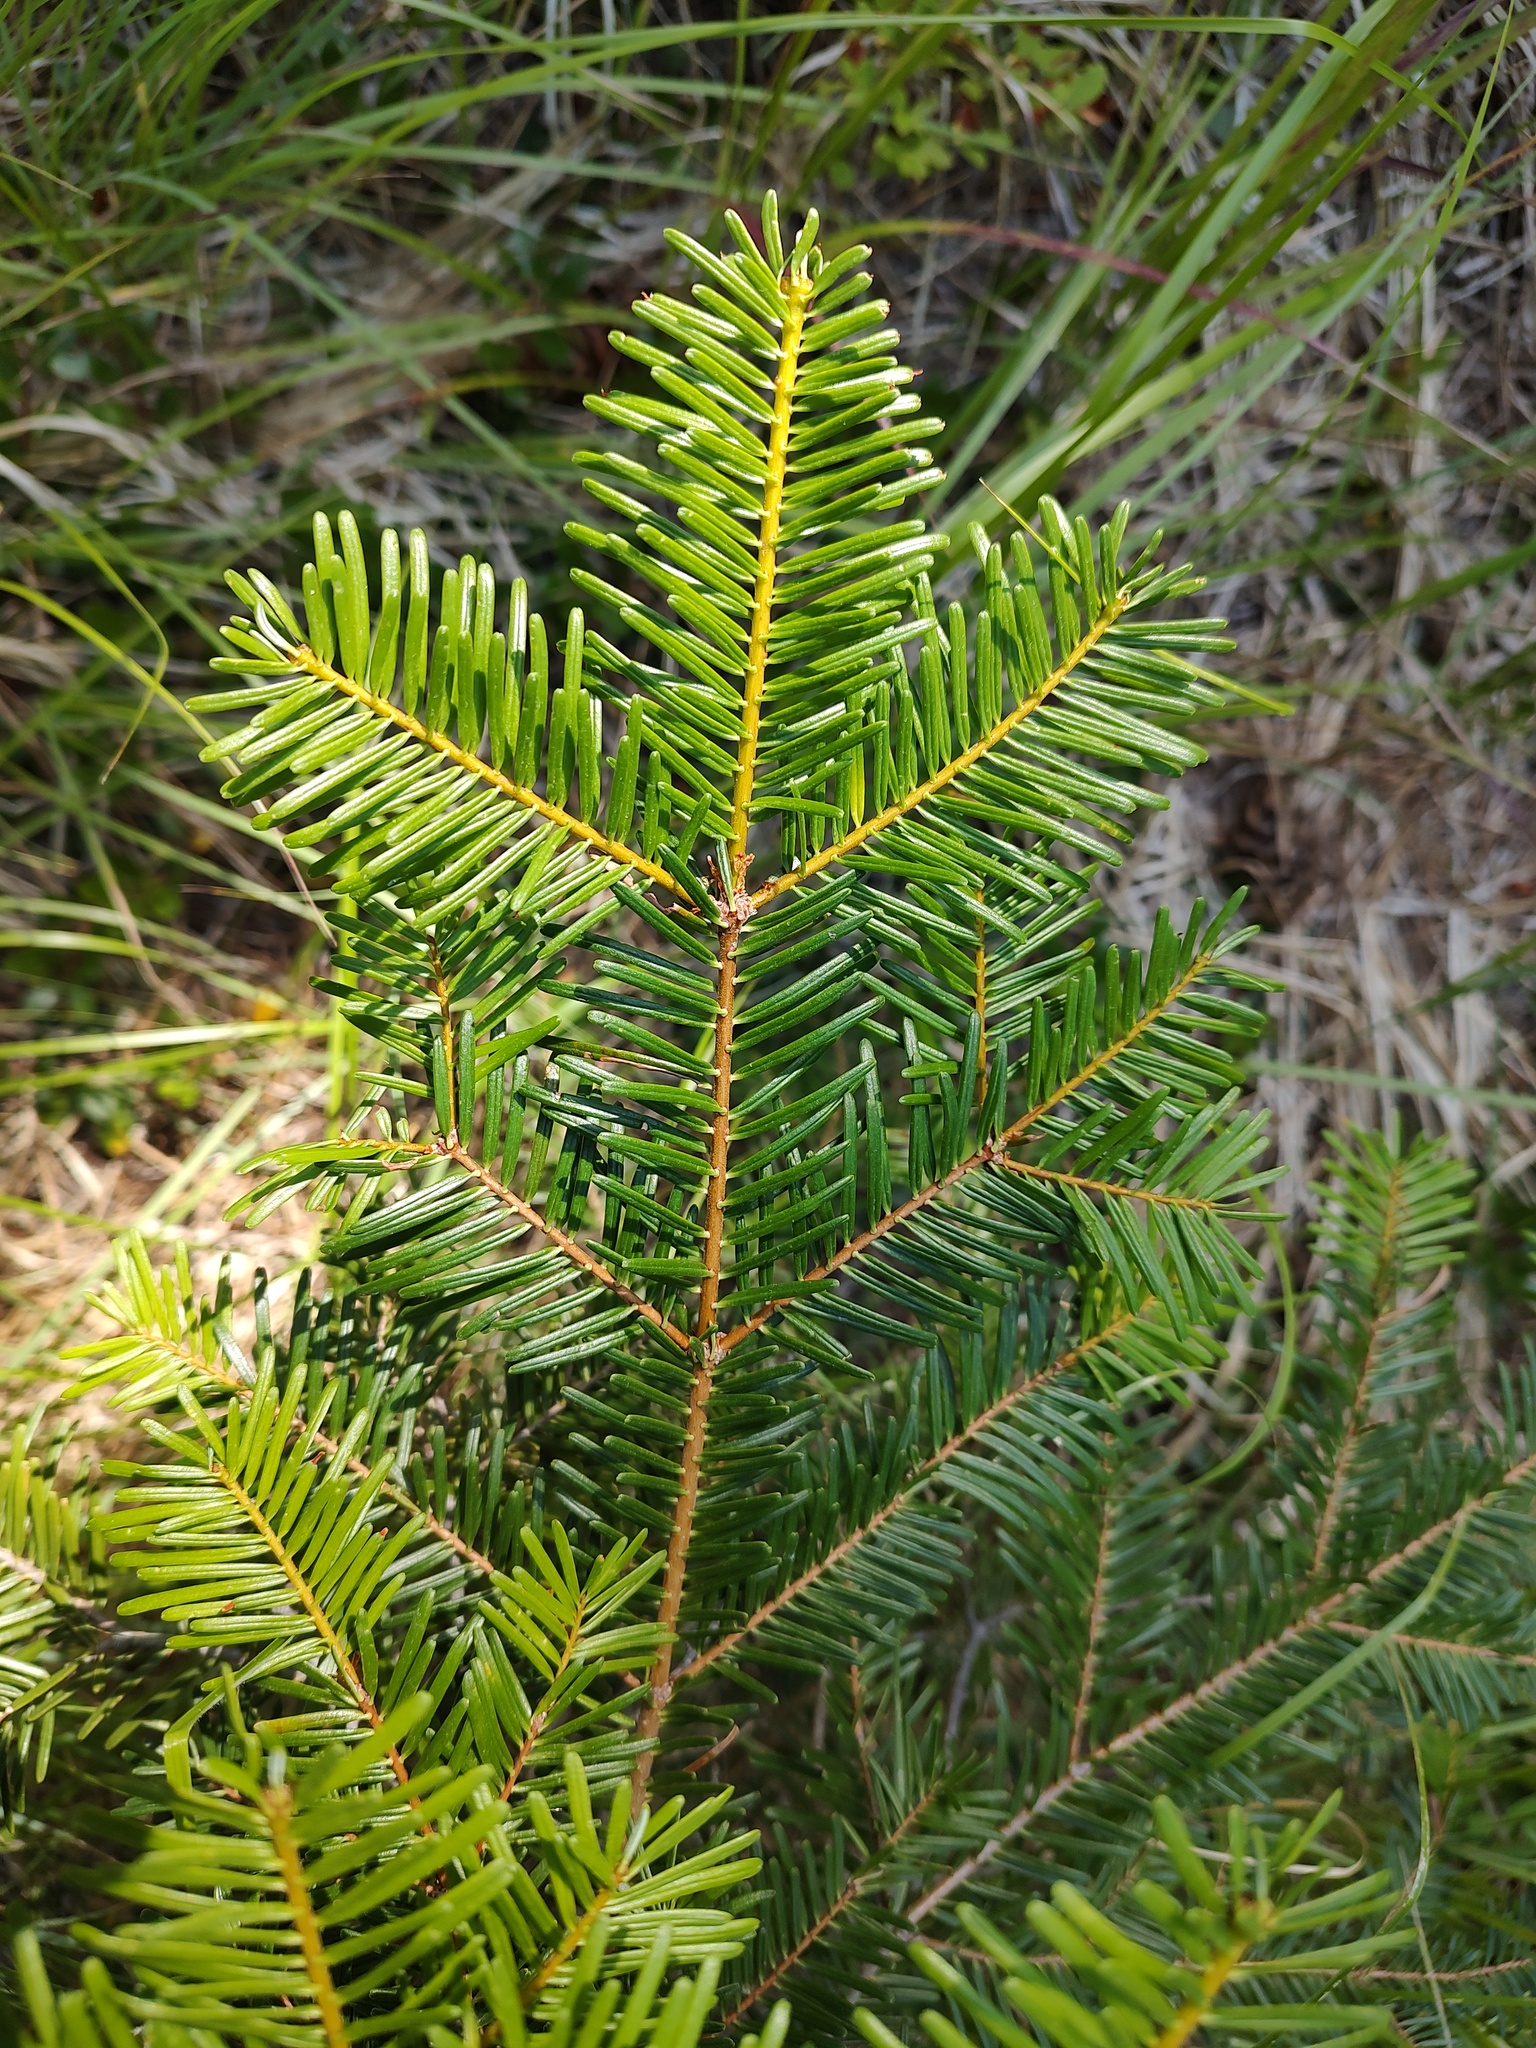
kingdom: Plantae
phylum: Tracheophyta
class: Pinopsida
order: Pinales
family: Pinaceae
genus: Abies
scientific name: Abies grandis
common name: Giant fir
